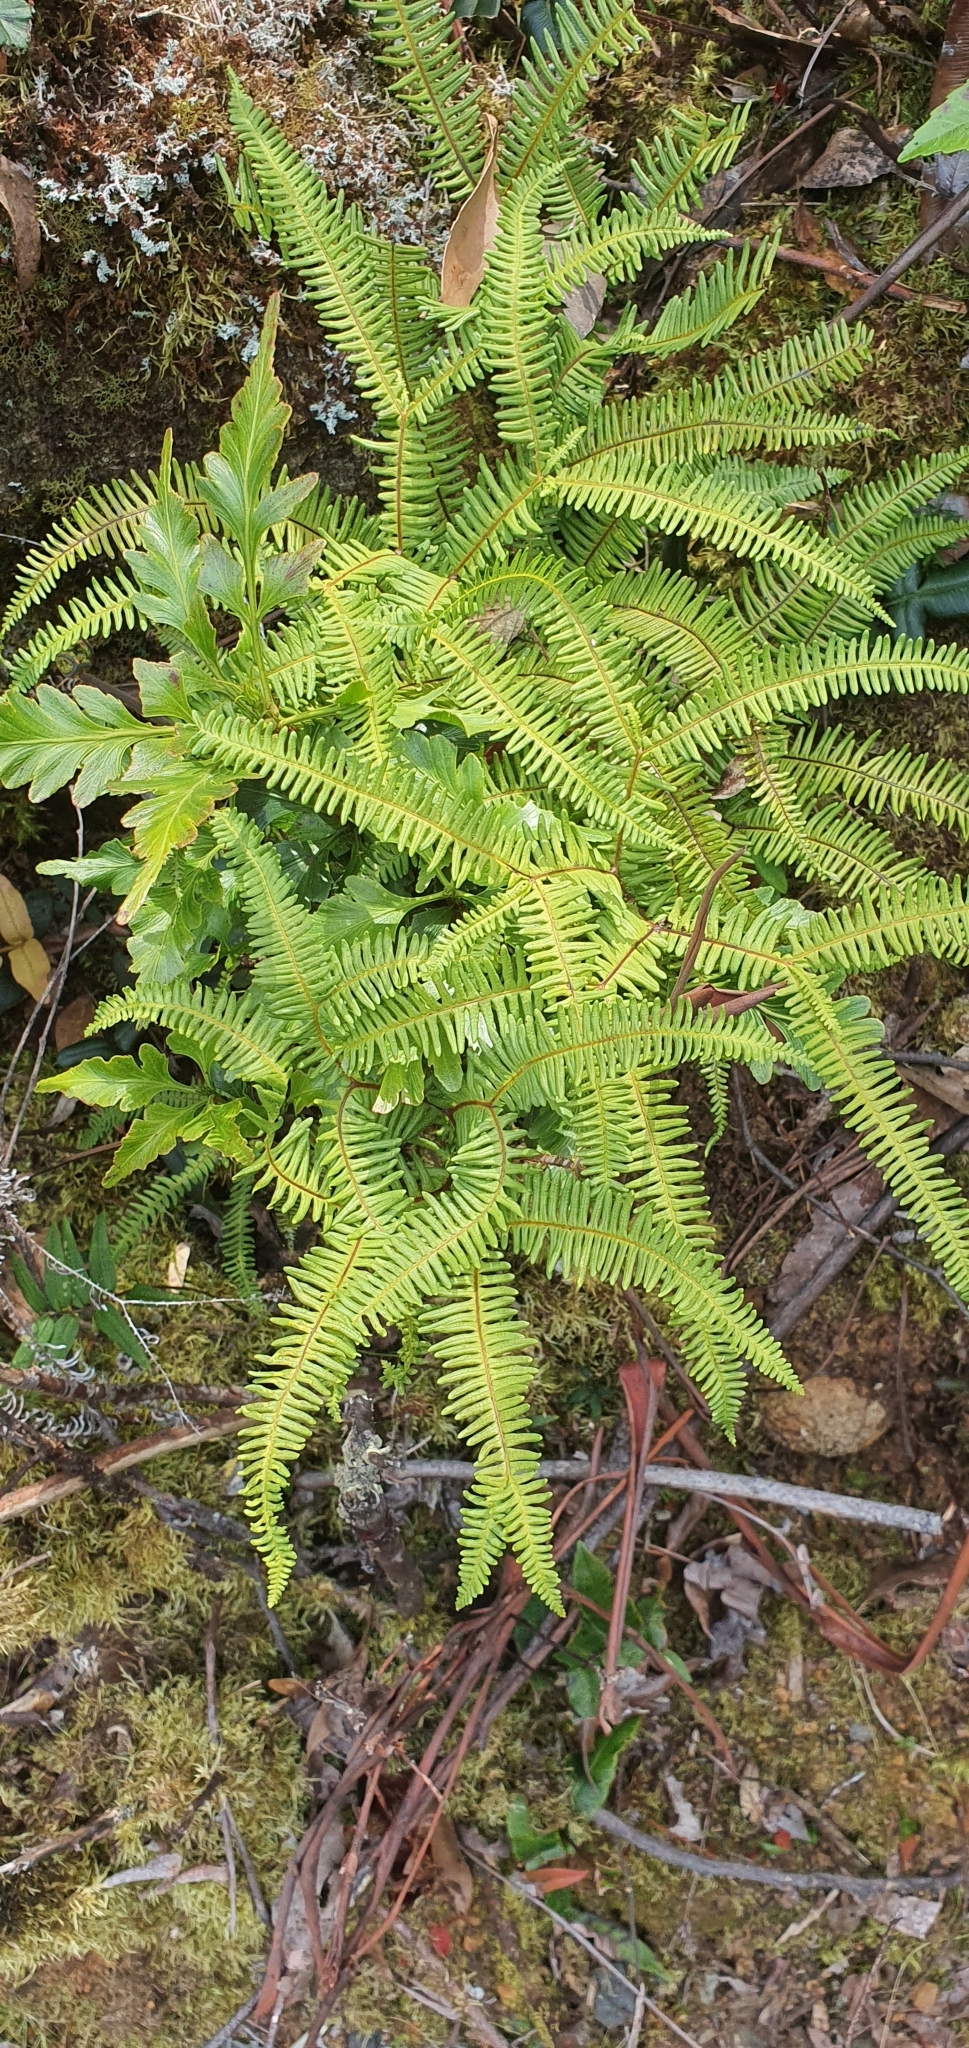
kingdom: Plantae
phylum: Tracheophyta
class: Polypodiopsida
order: Gleicheniales
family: Gleicheniaceae
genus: Sticherus
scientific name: Sticherus tener
